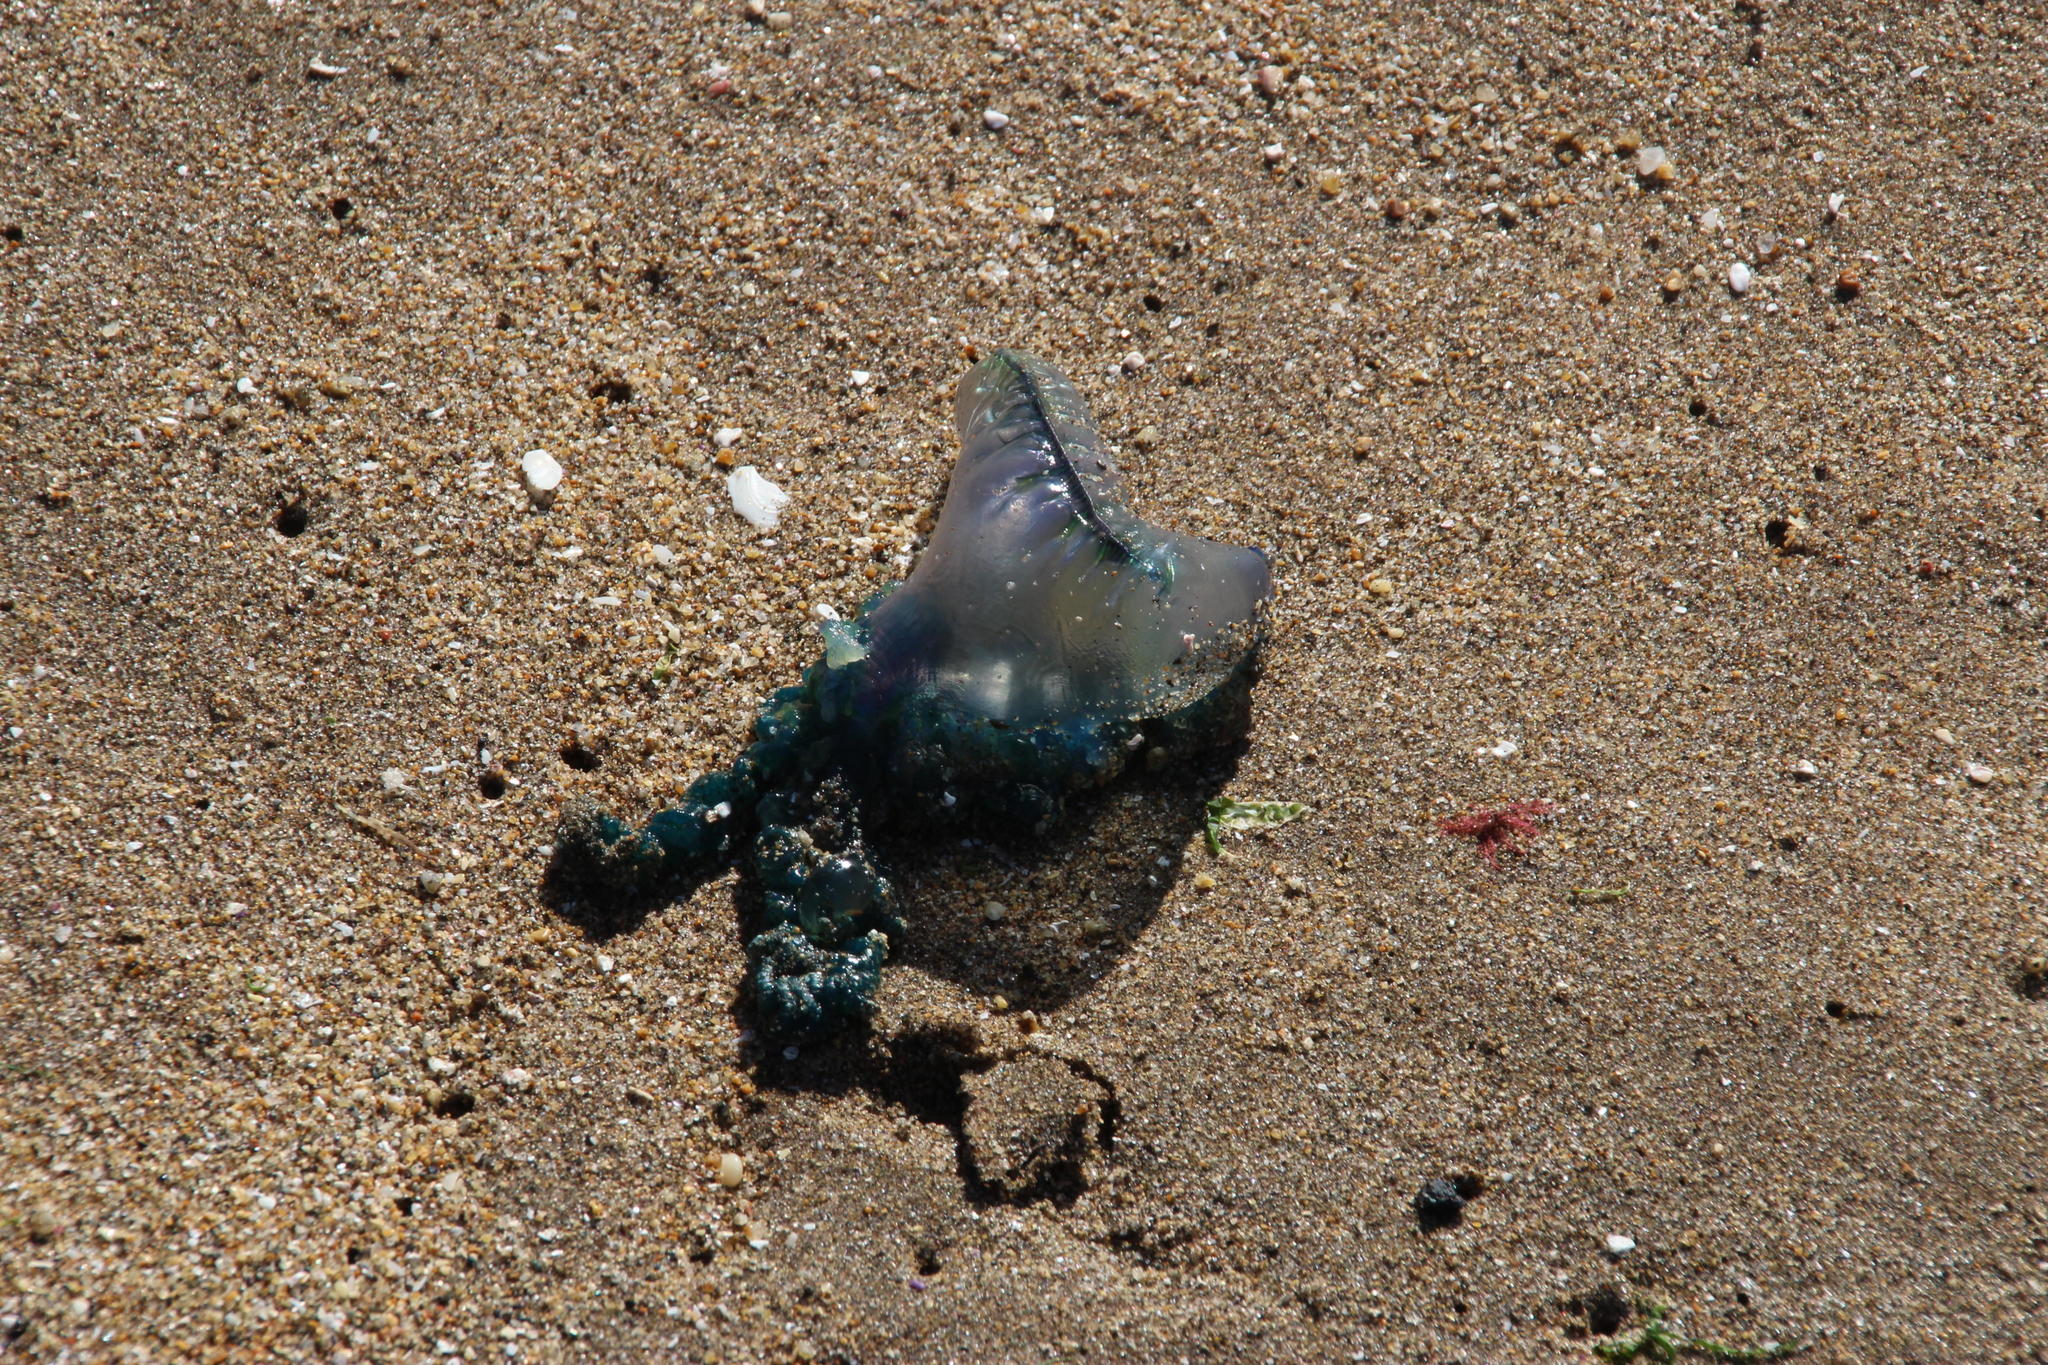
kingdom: Animalia
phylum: Cnidaria
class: Hydrozoa
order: Siphonophorae
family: Physaliidae
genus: Physalia
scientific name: Physalia physalis
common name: Portuguese man-of-war
